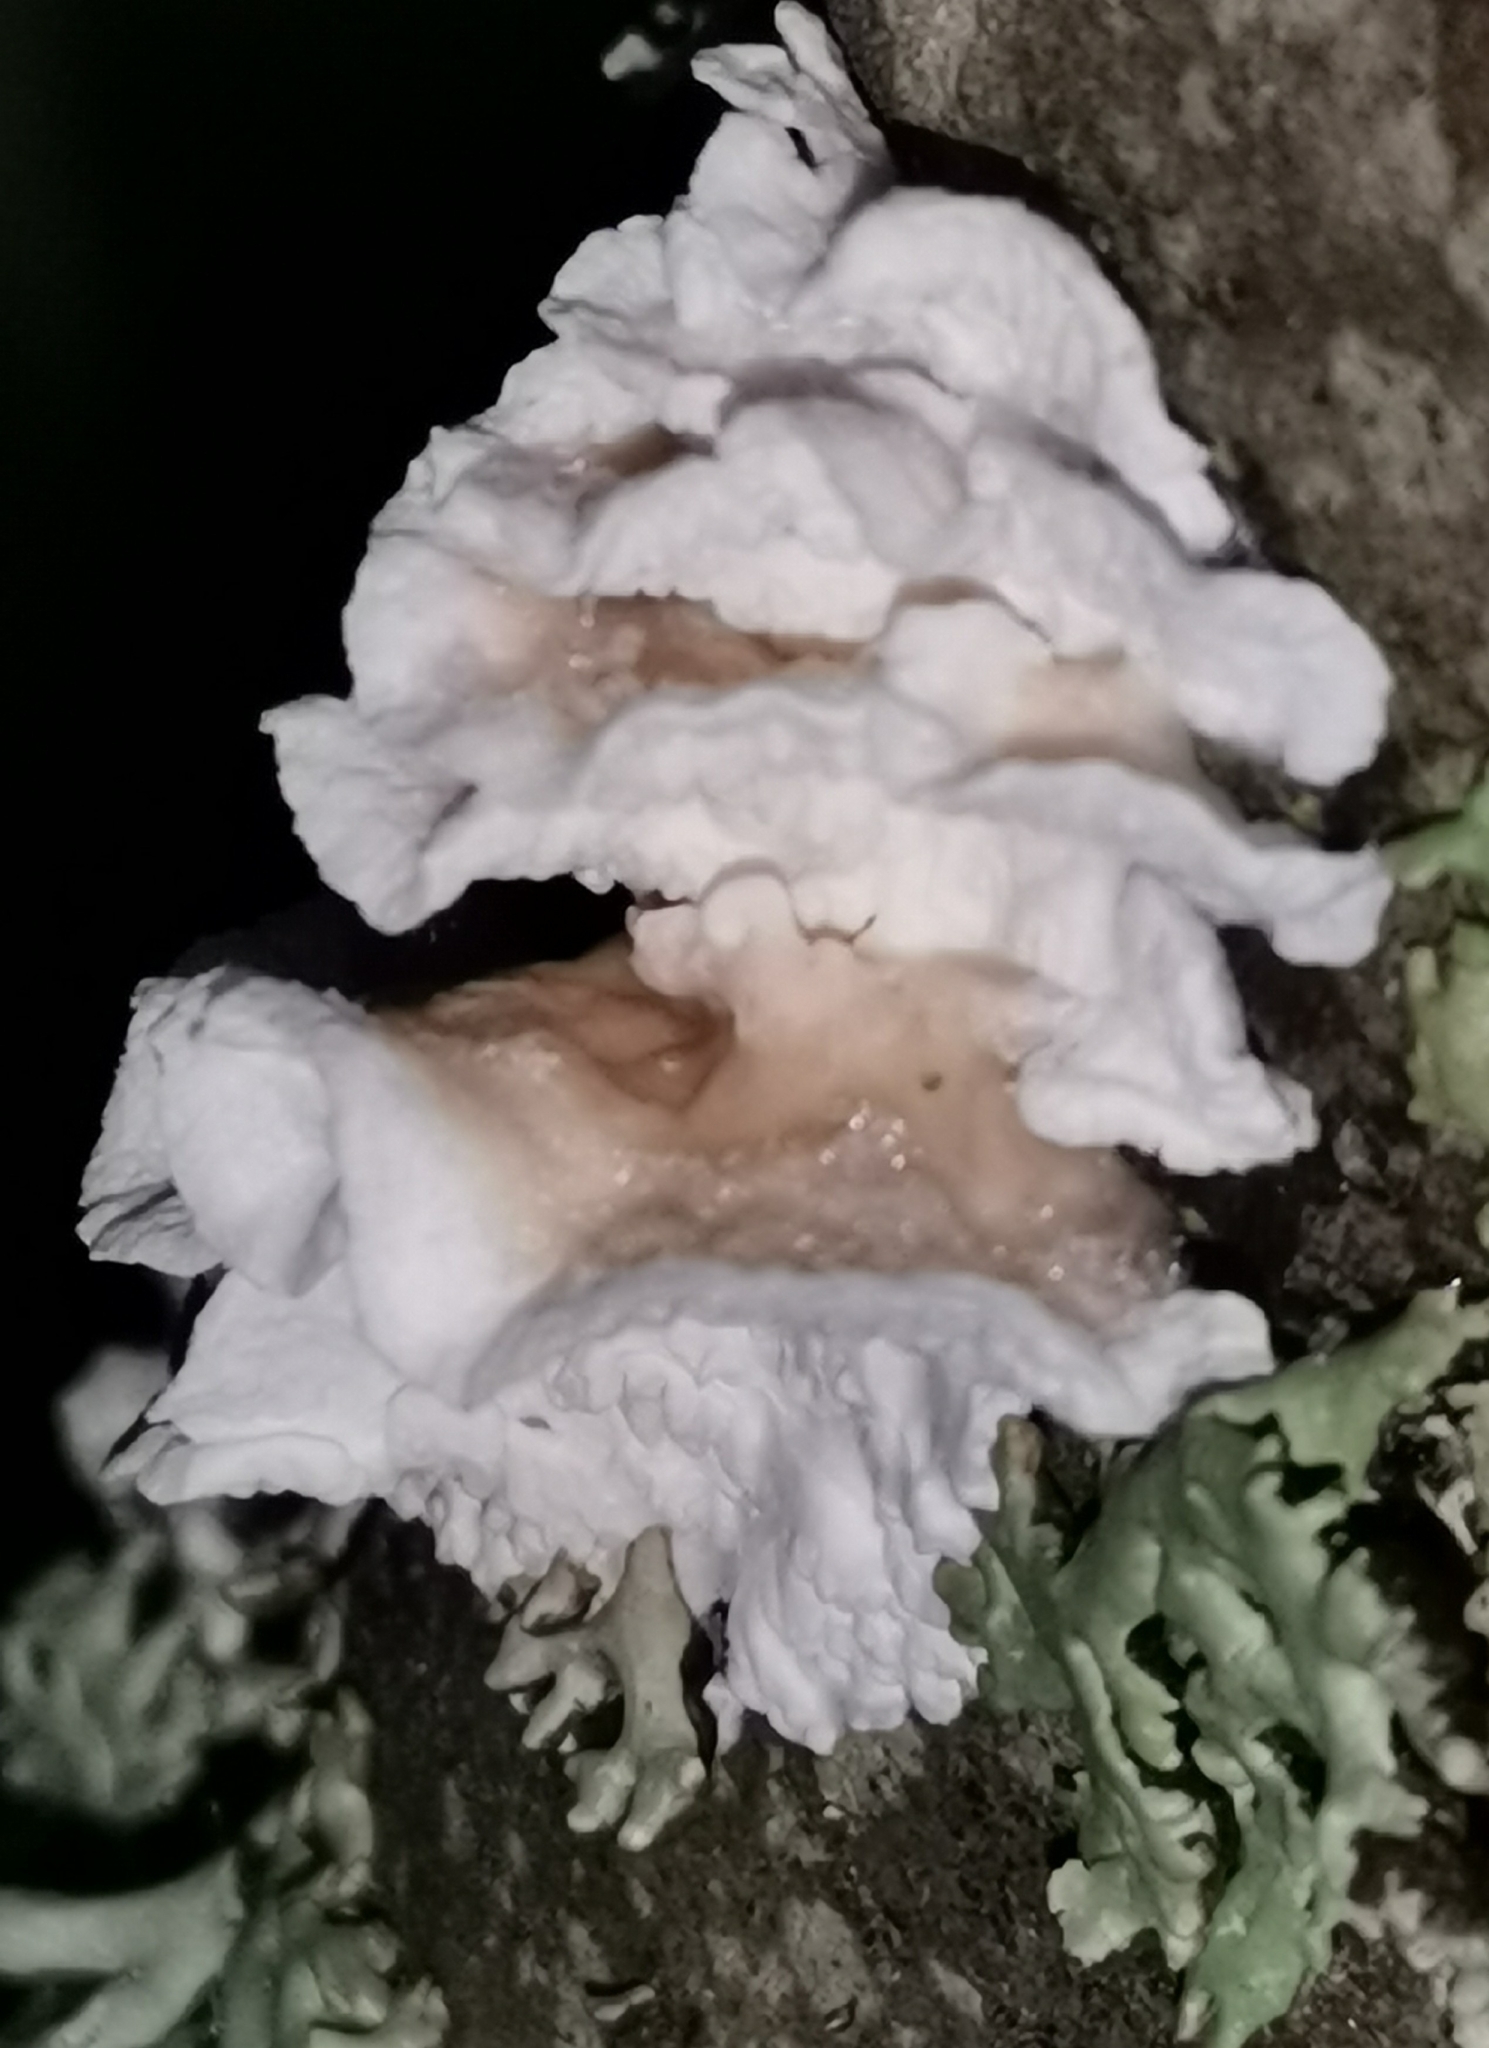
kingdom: Fungi
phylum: Basidiomycota
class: Agaricomycetes
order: Agaricales
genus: Plicatura
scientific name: Plicatura nivea
